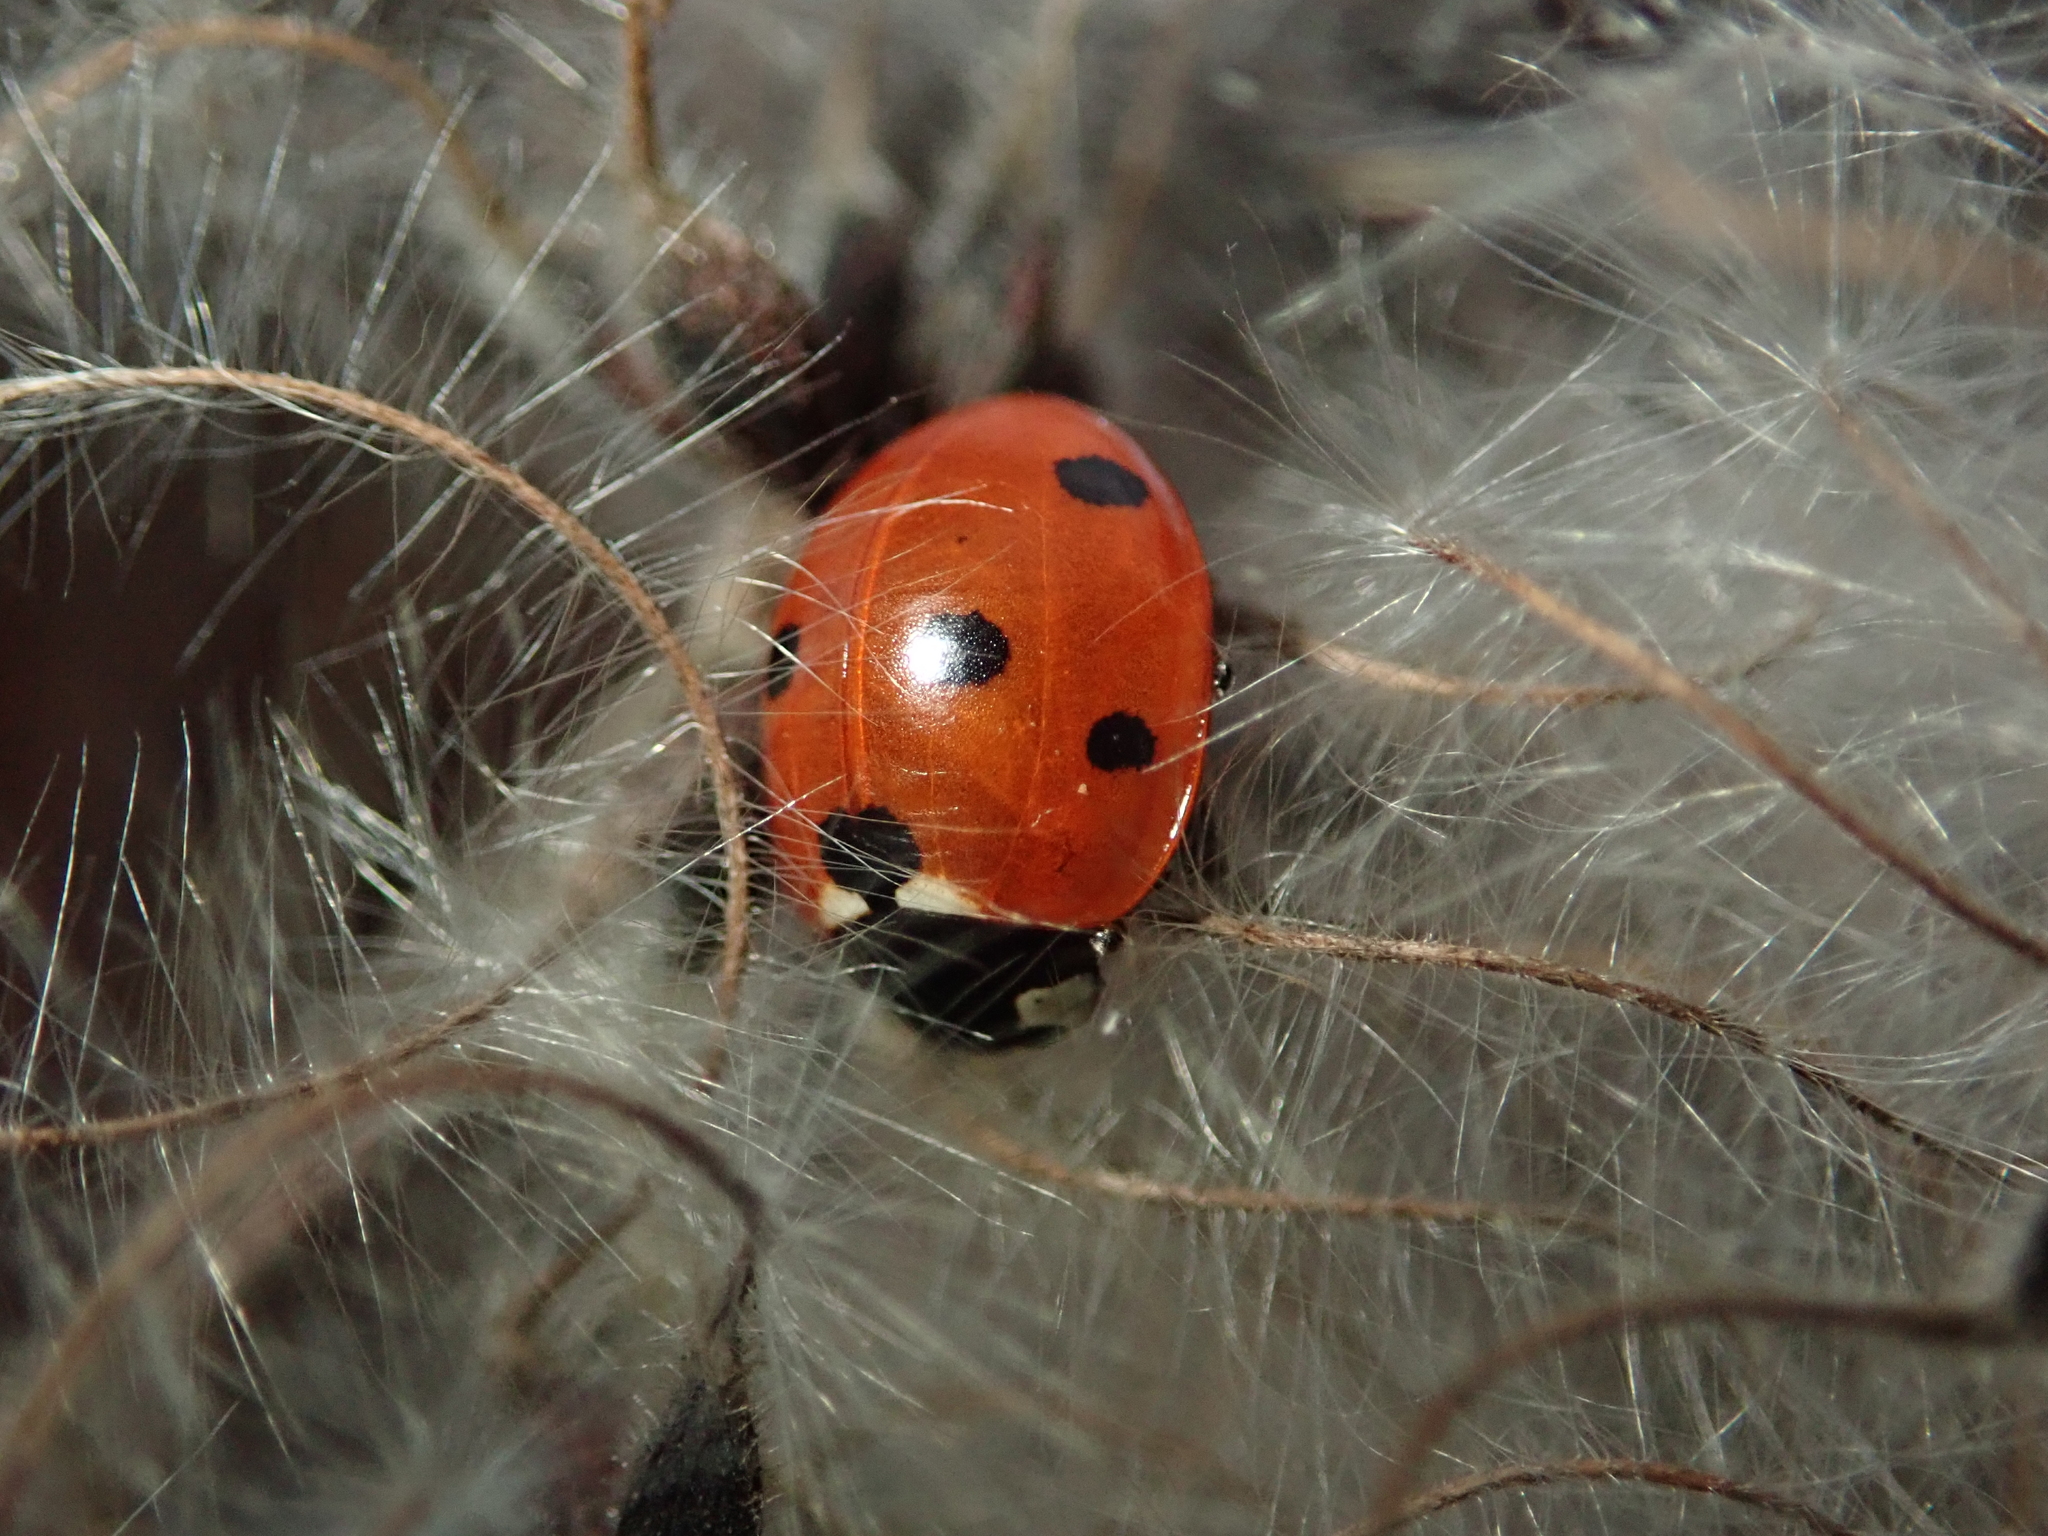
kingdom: Animalia
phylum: Arthropoda
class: Insecta
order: Coleoptera
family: Coccinellidae
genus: Coccinella
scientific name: Coccinella septempunctata
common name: Sevenspotted lady beetle
